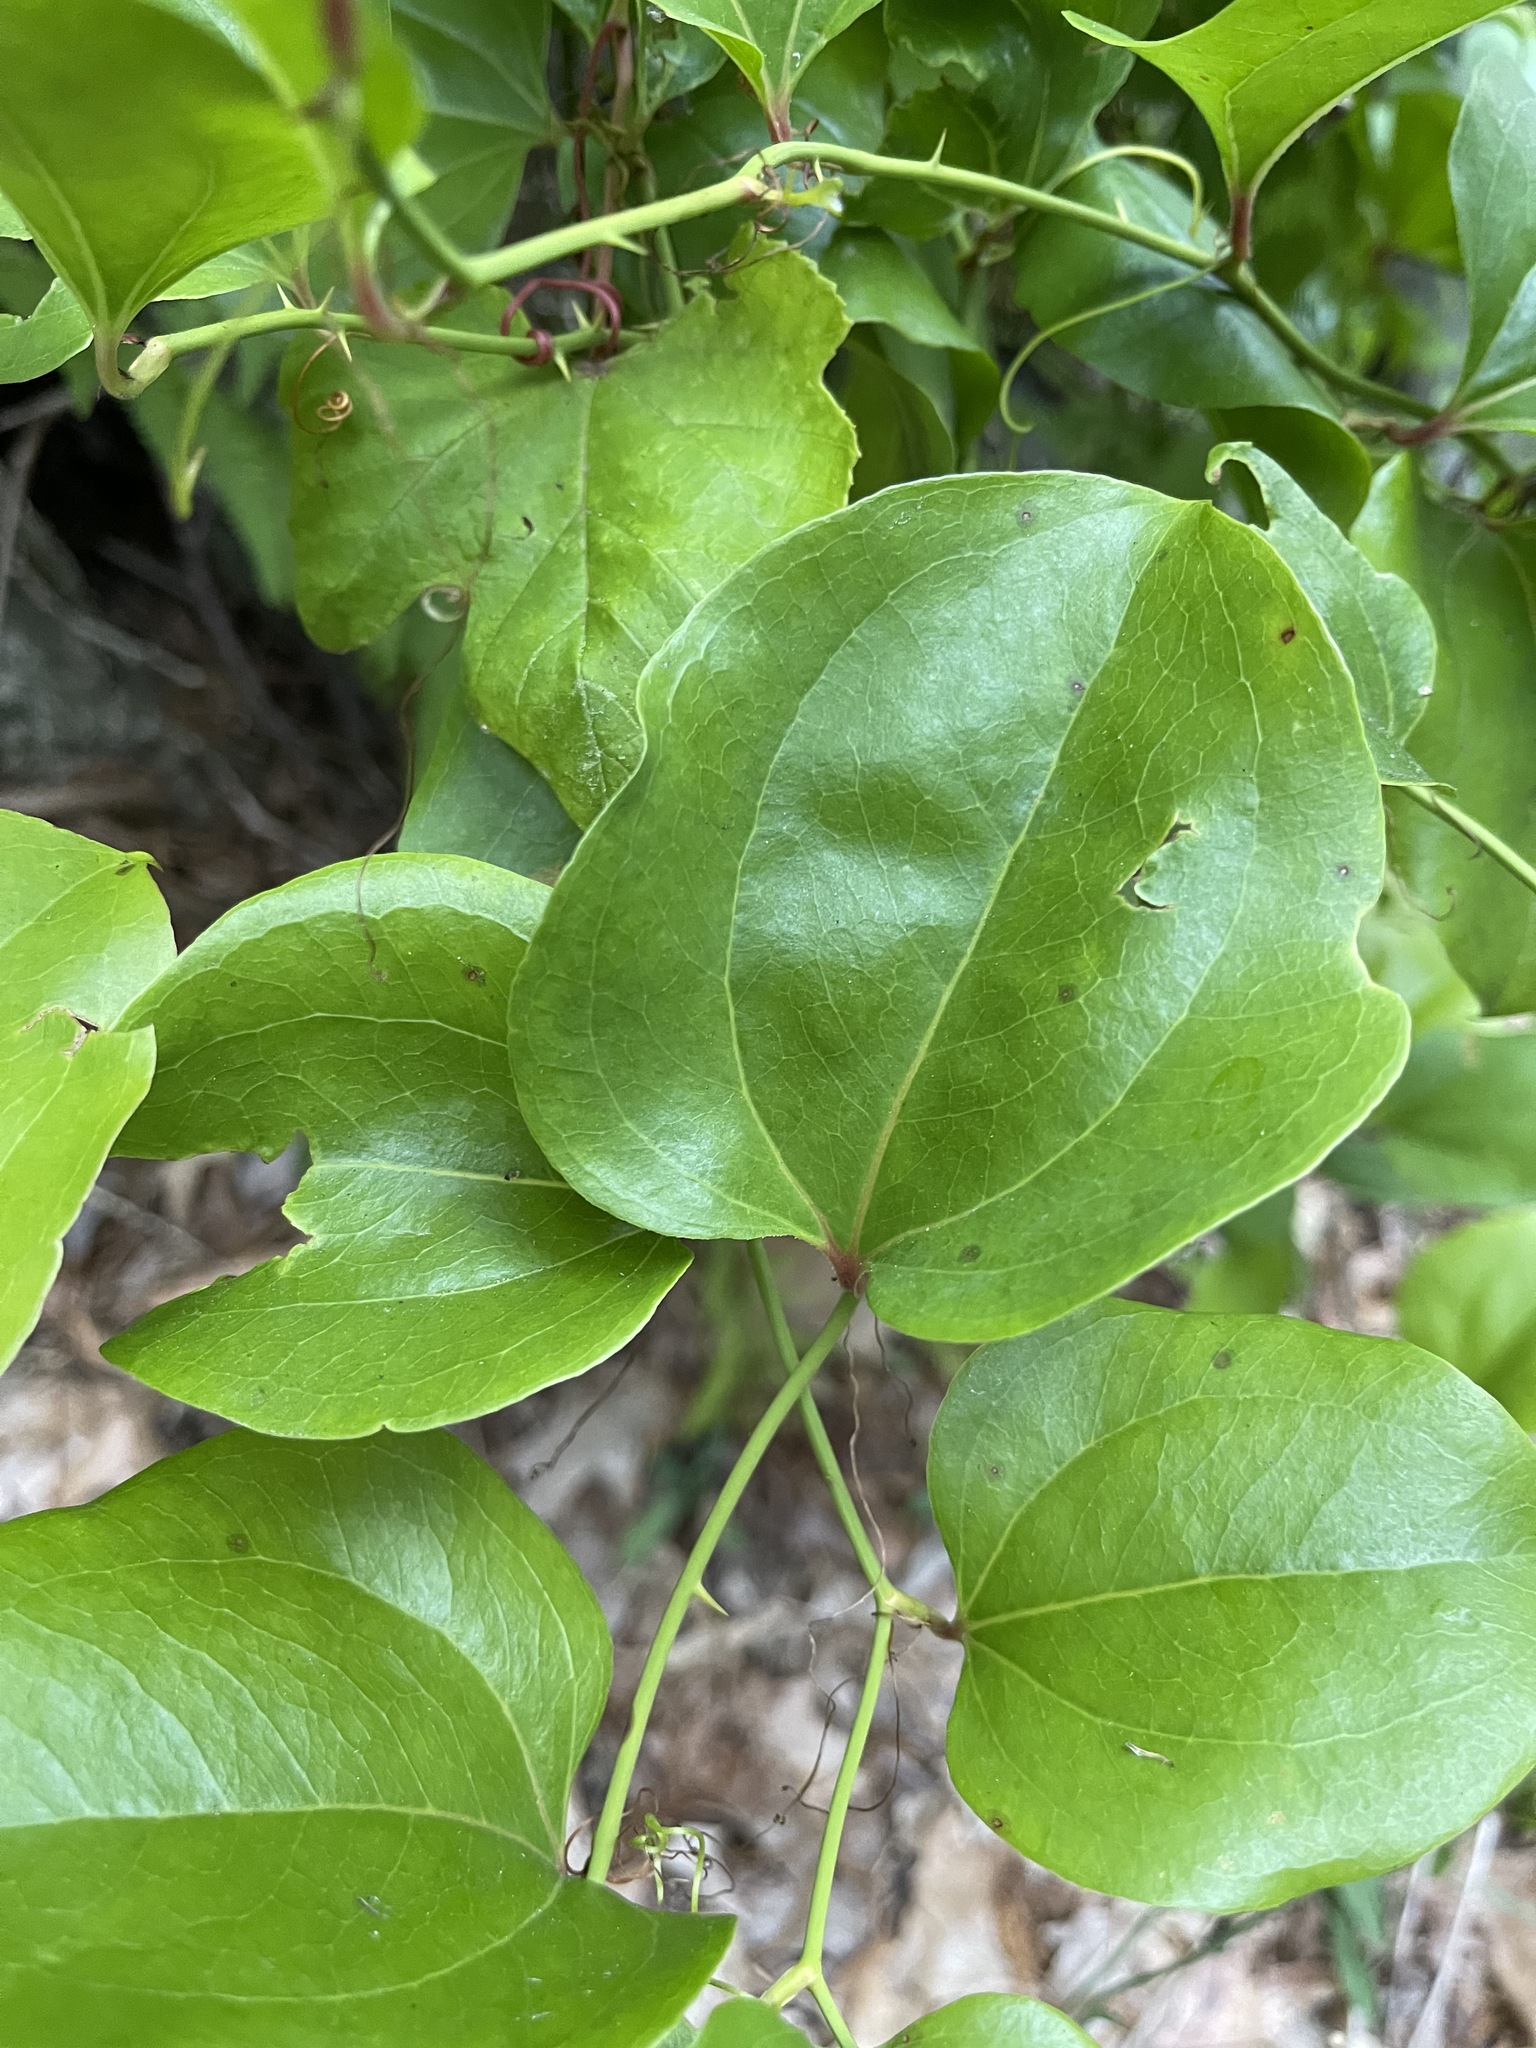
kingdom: Plantae
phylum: Tracheophyta
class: Liliopsida
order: Liliales
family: Smilacaceae
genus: Smilax
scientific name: Smilax rotundifolia
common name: Bullbriar
